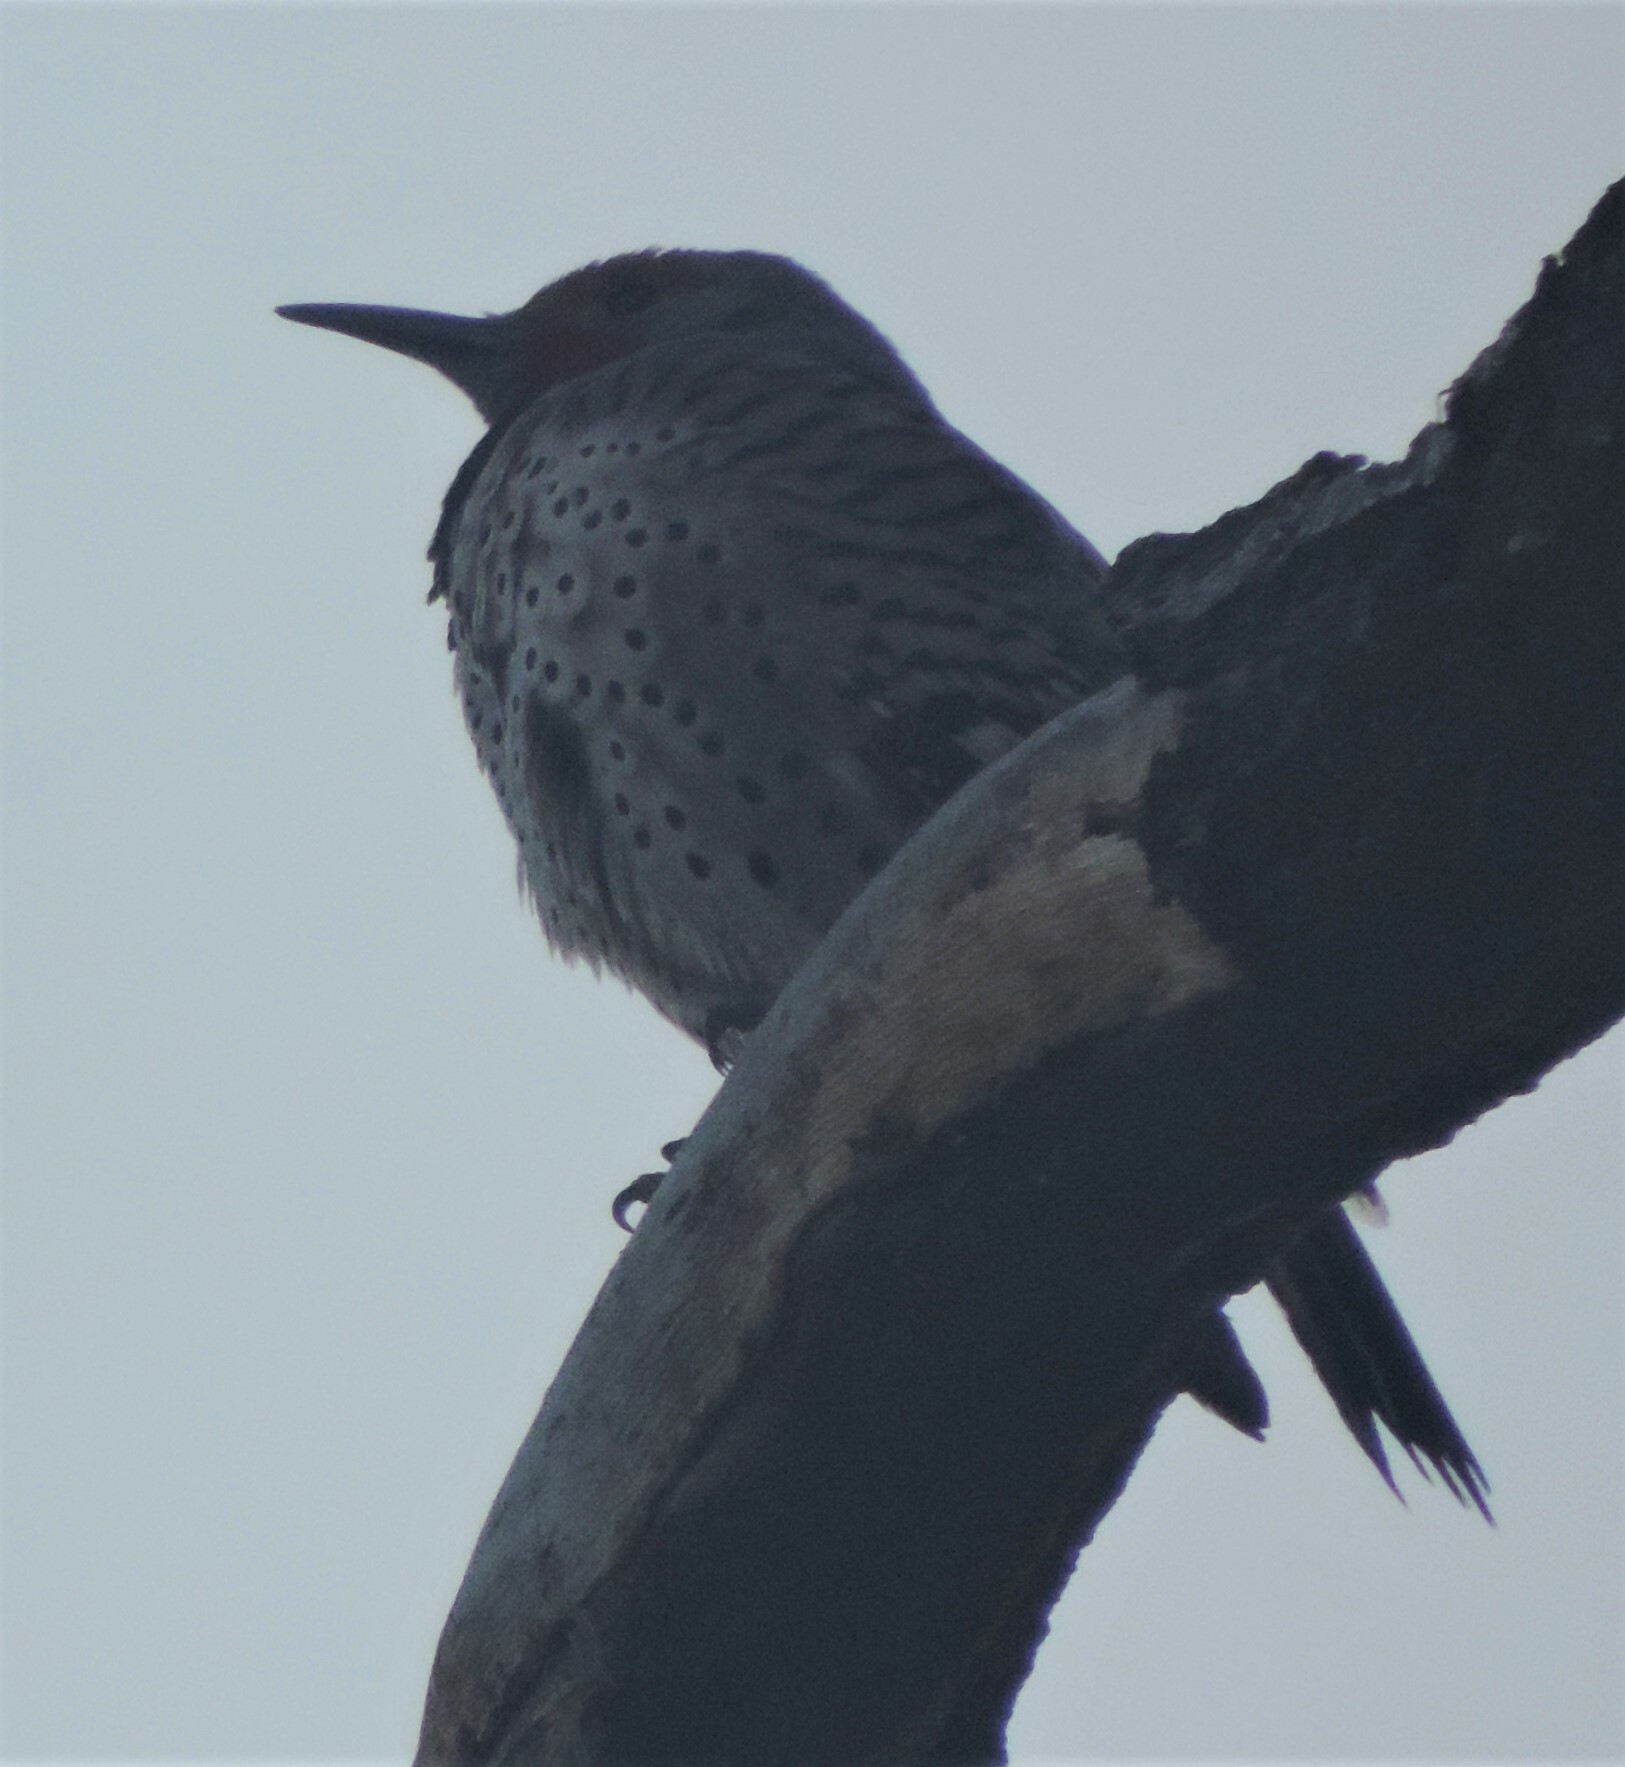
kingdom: Animalia
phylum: Chordata
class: Aves
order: Piciformes
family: Picidae
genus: Colaptes
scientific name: Colaptes auratus
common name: Northern flicker
